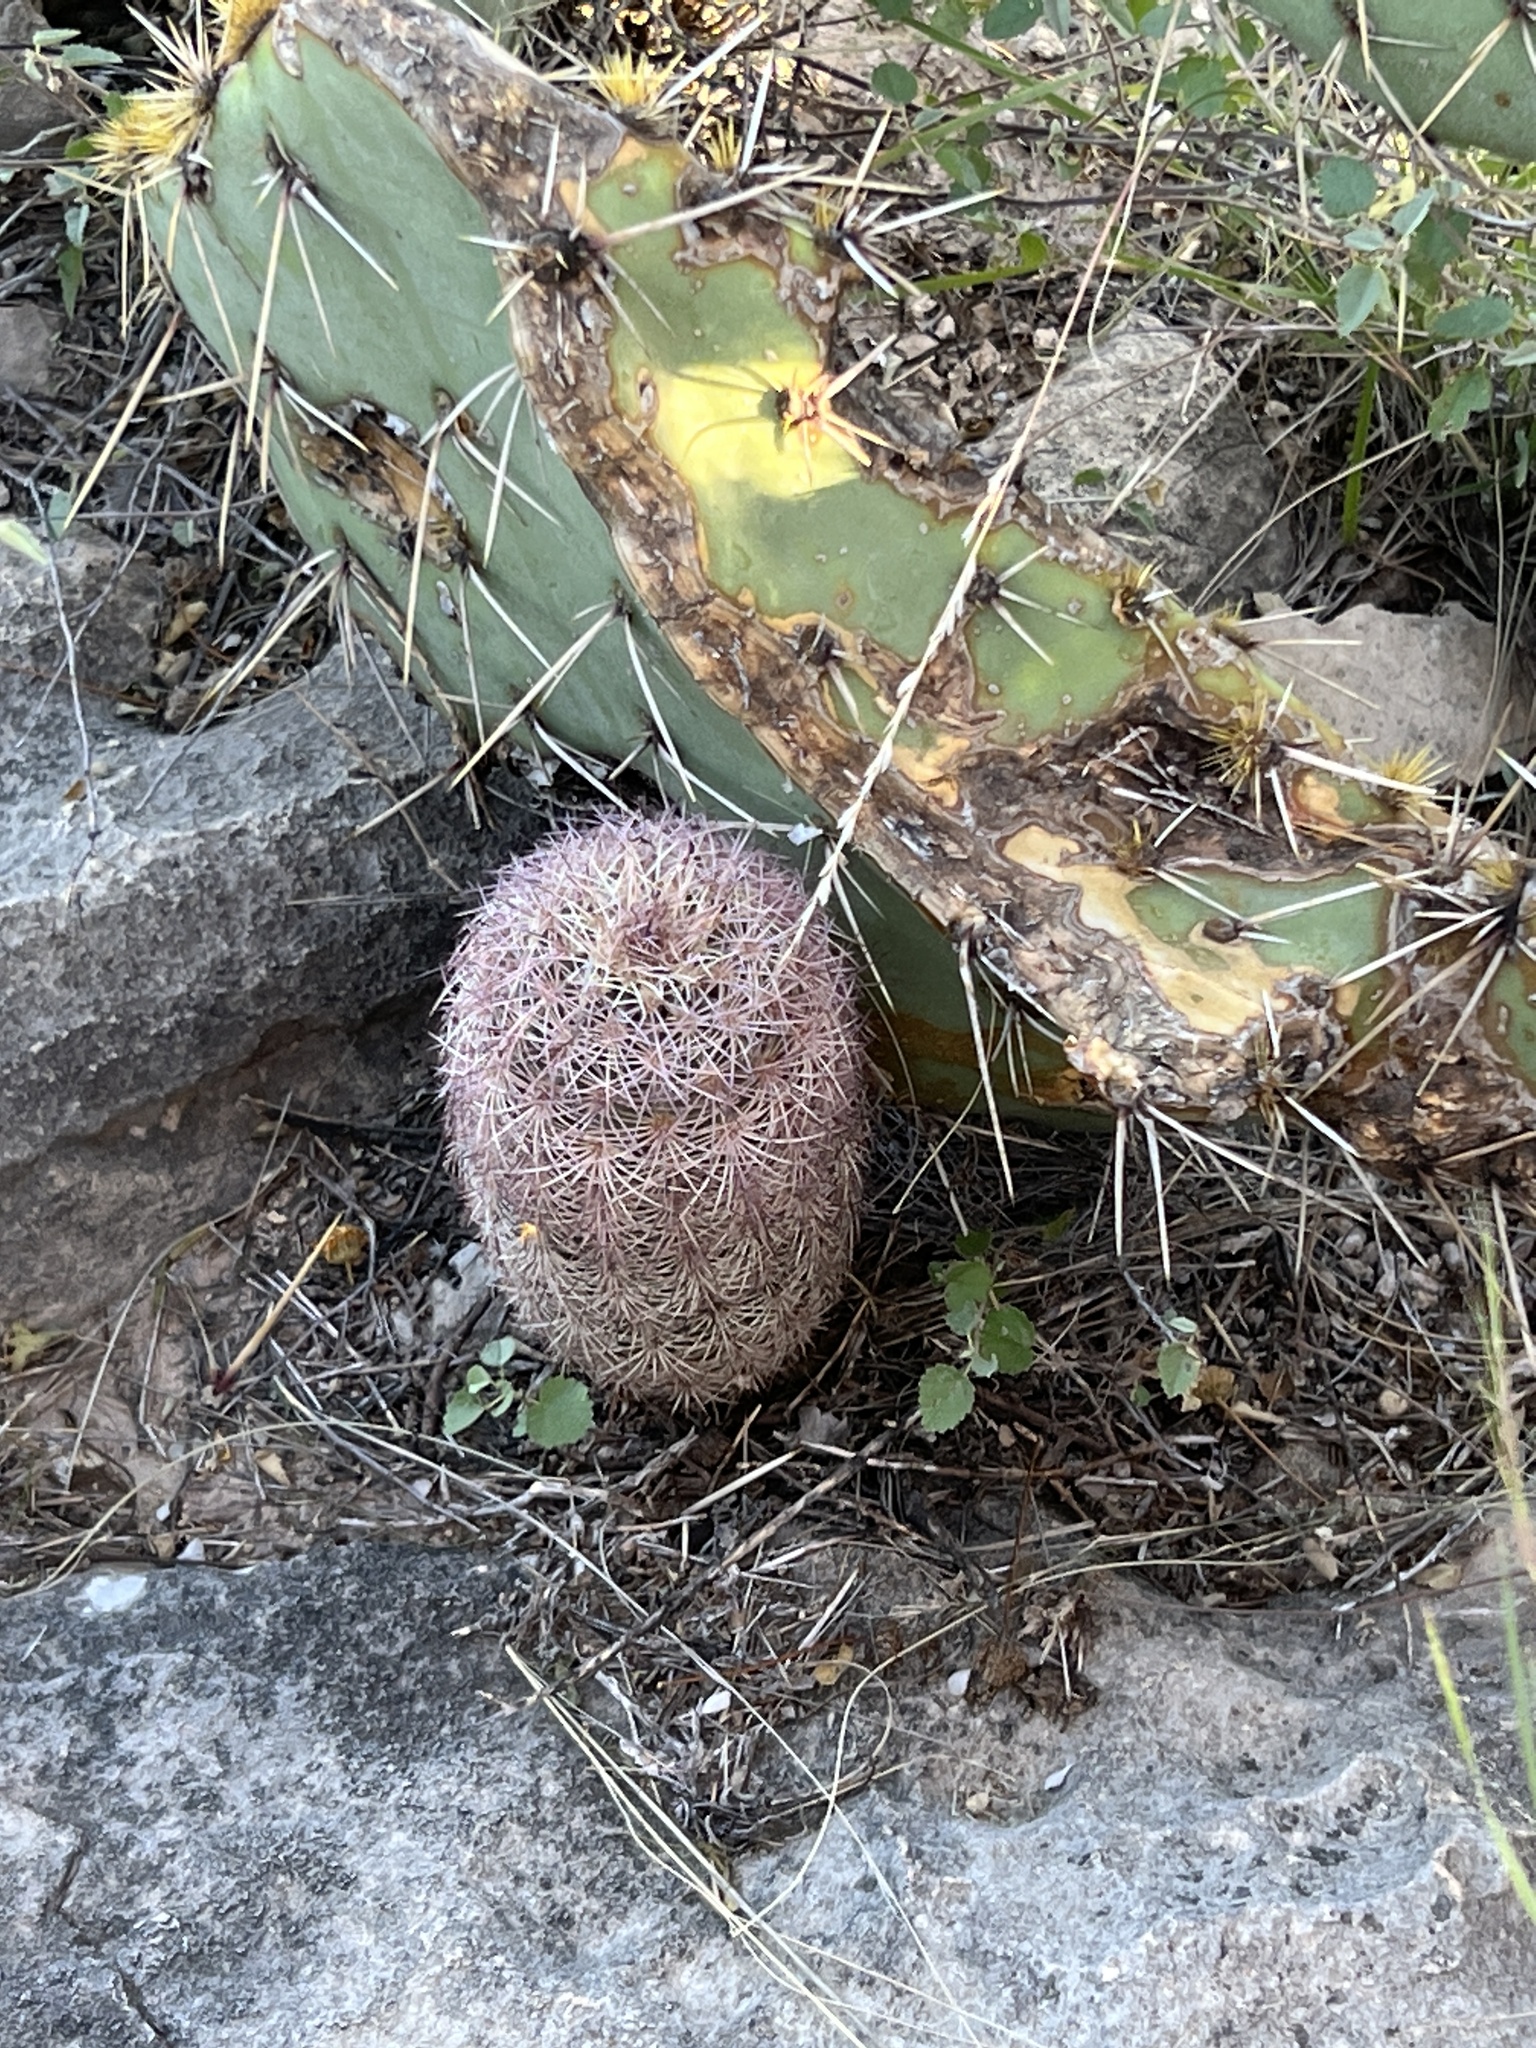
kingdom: Plantae
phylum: Tracheophyta
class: Magnoliopsida
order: Caryophyllales
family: Cactaceae
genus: Echinocereus
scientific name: Echinocereus dasyacanthus
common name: Spiny hedgehog cactus
